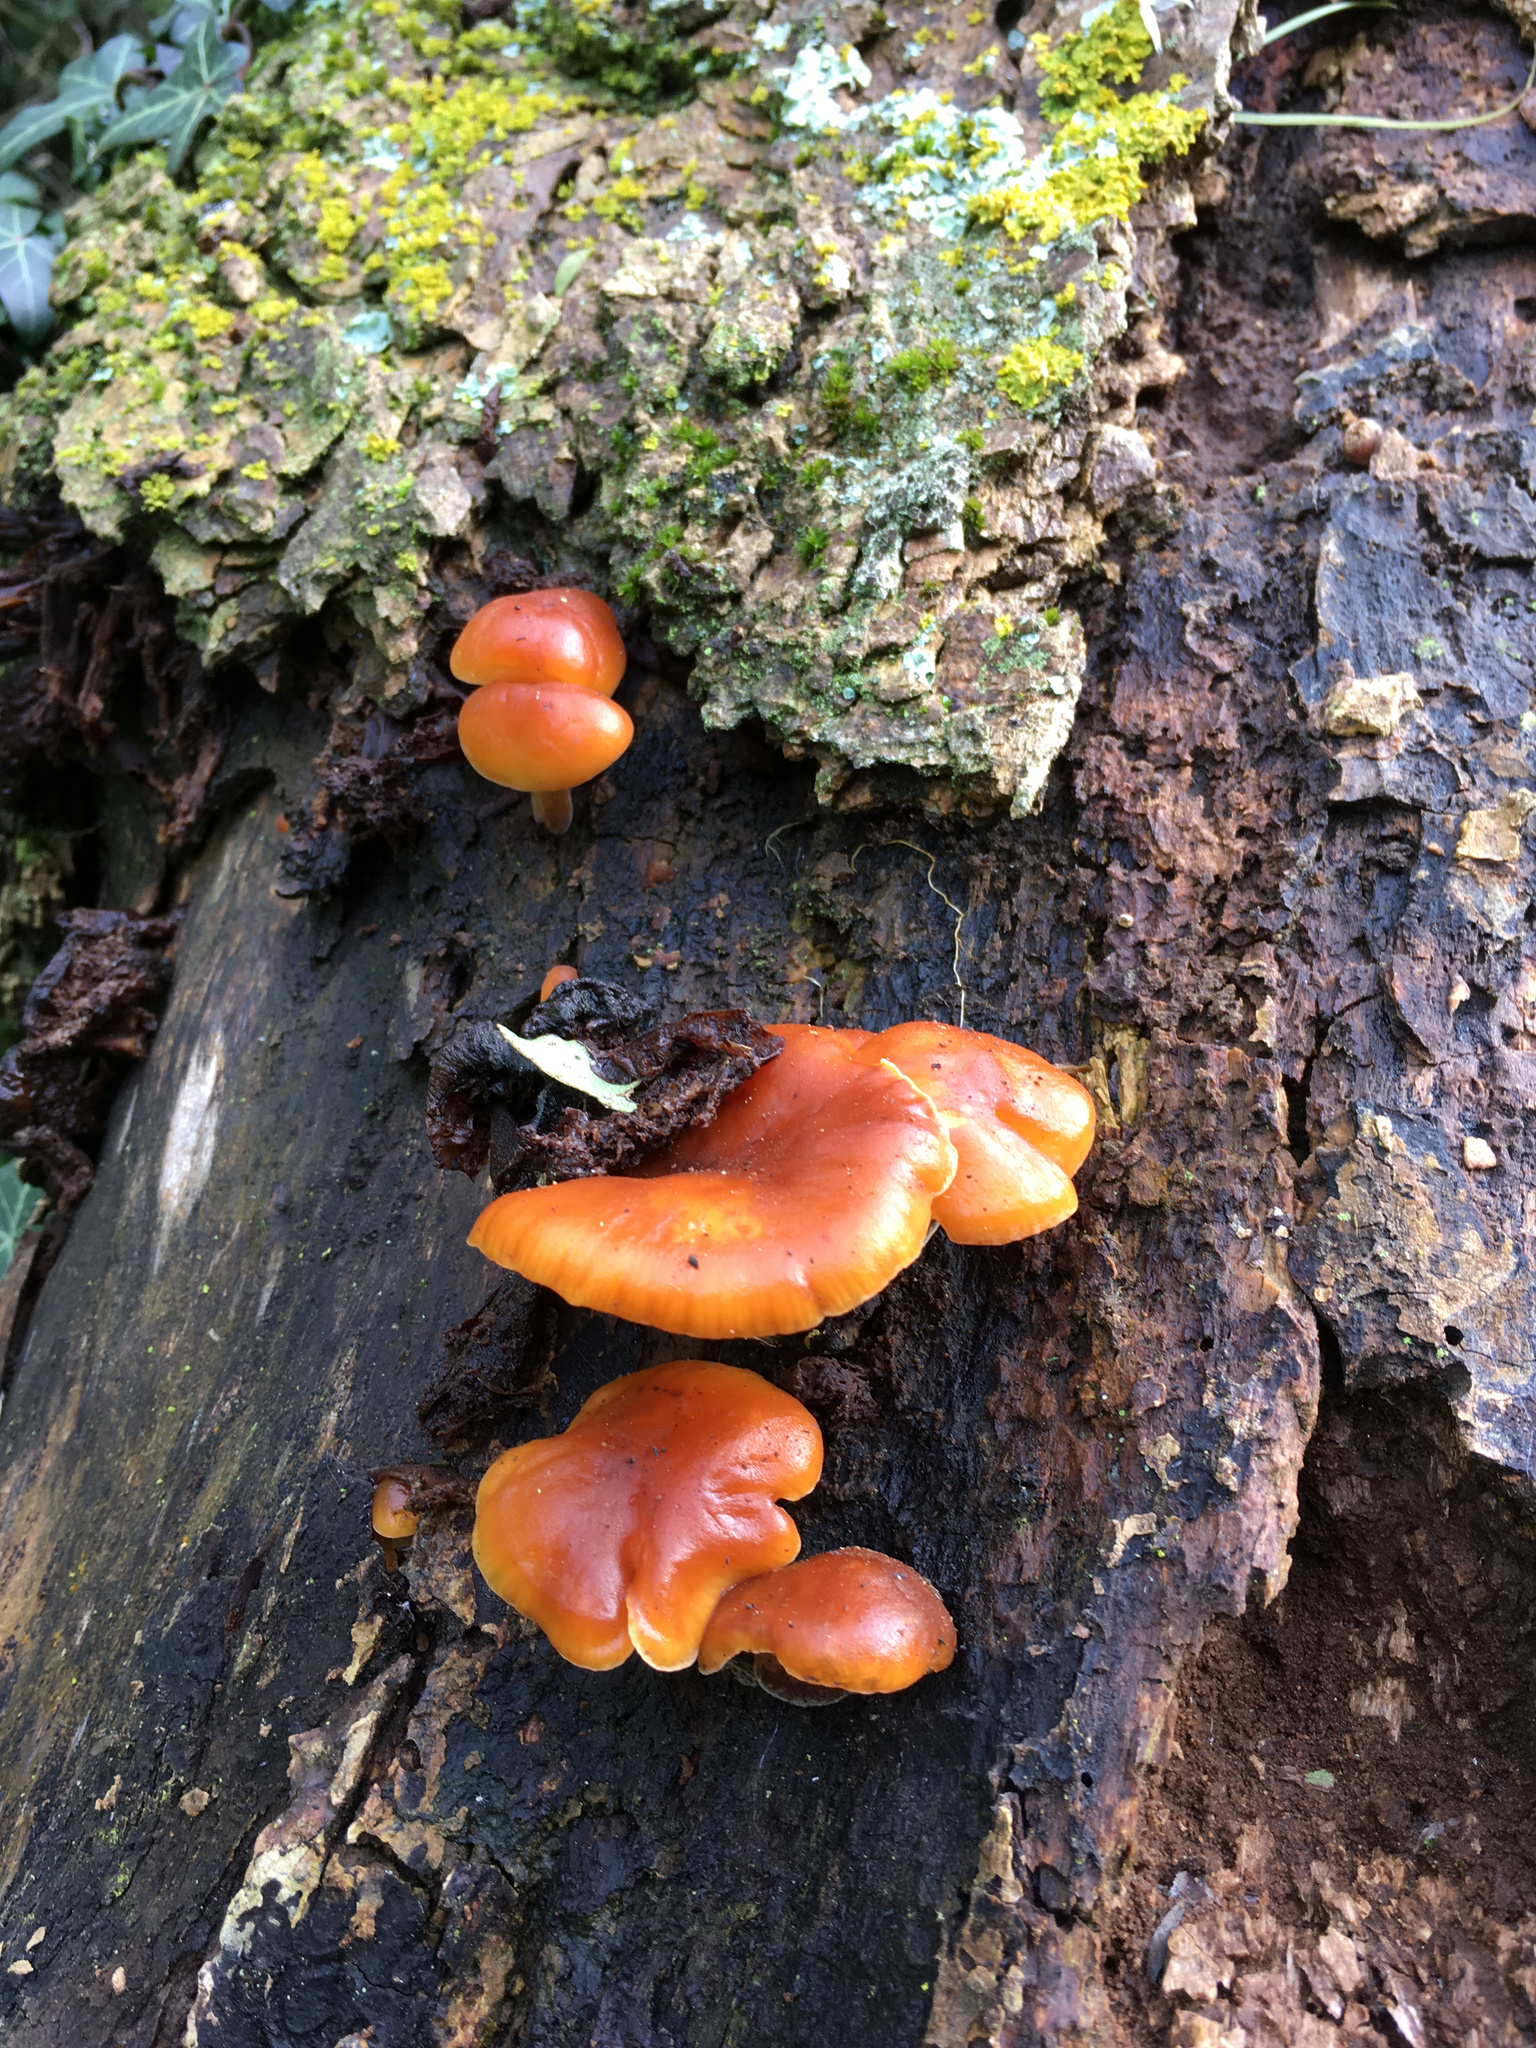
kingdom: Fungi
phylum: Basidiomycota
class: Agaricomycetes
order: Agaricales
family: Physalacriaceae
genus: Flammulina
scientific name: Flammulina velutipes
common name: Velvet shank
